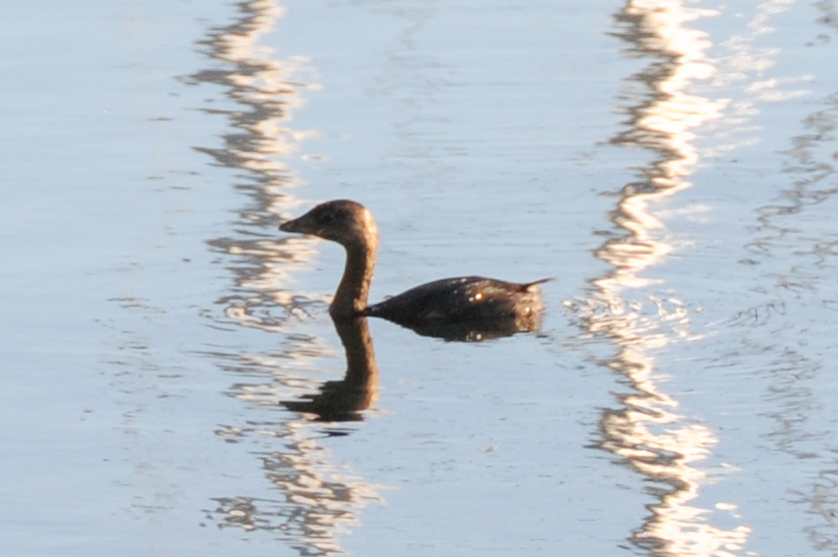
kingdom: Animalia
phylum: Chordata
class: Aves
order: Podicipediformes
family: Podicipedidae
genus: Podilymbus
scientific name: Podilymbus podiceps
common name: Pied-billed grebe
